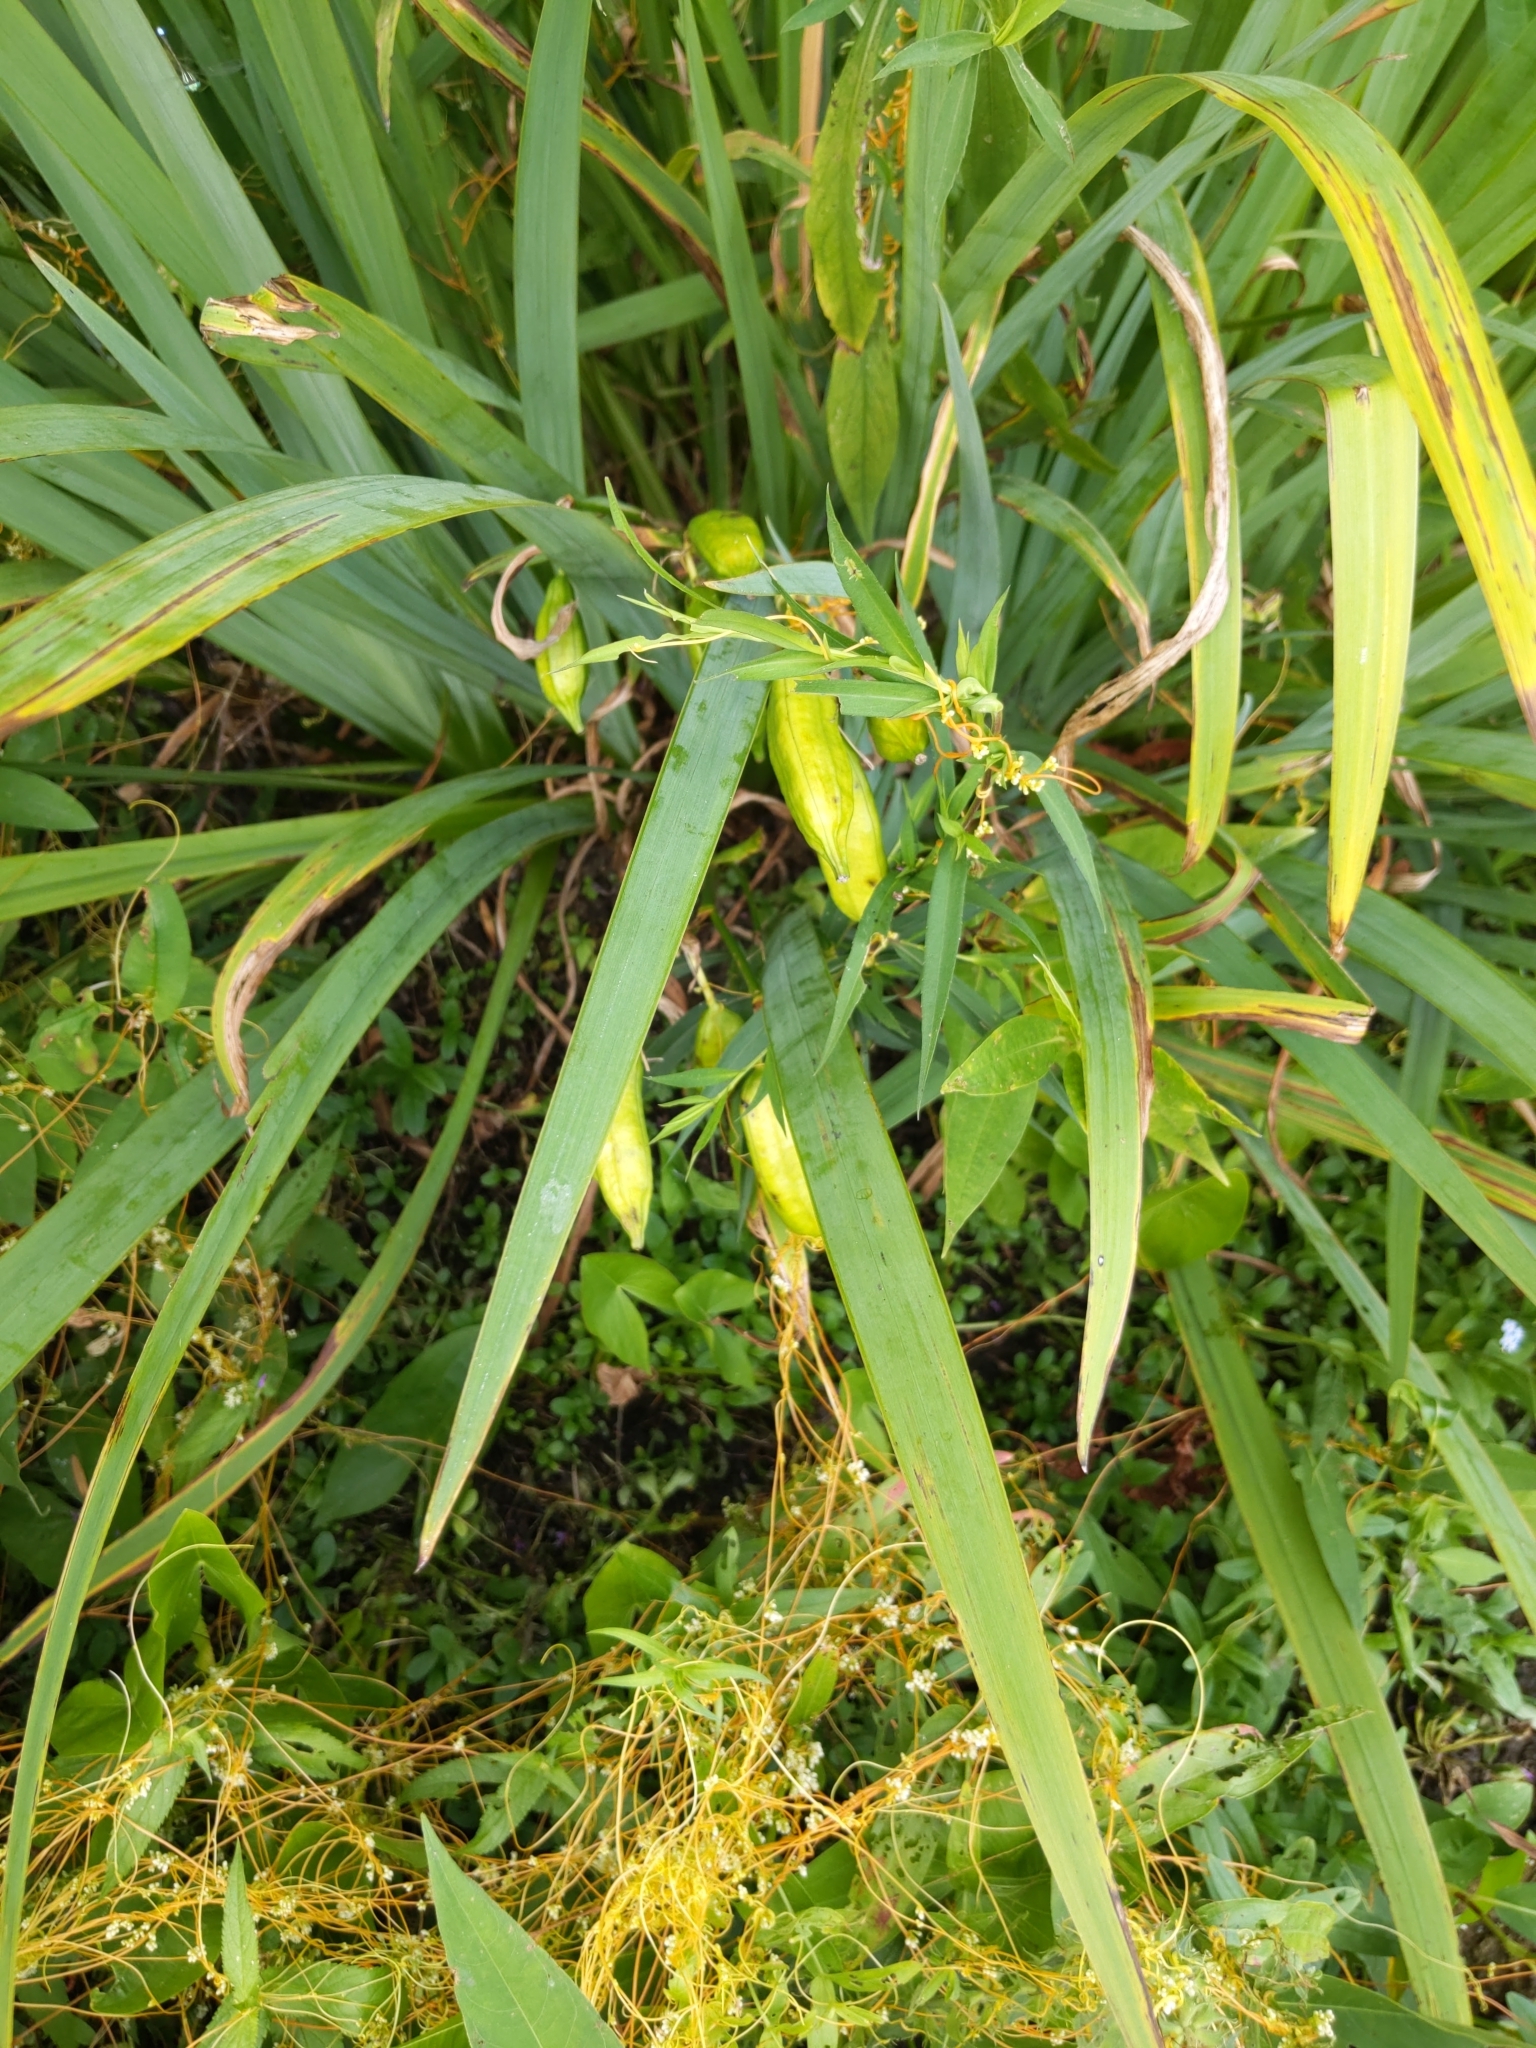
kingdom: Plantae
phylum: Tracheophyta
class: Liliopsida
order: Asparagales
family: Iridaceae
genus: Iris
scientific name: Iris pseudacorus
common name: Yellow flag
